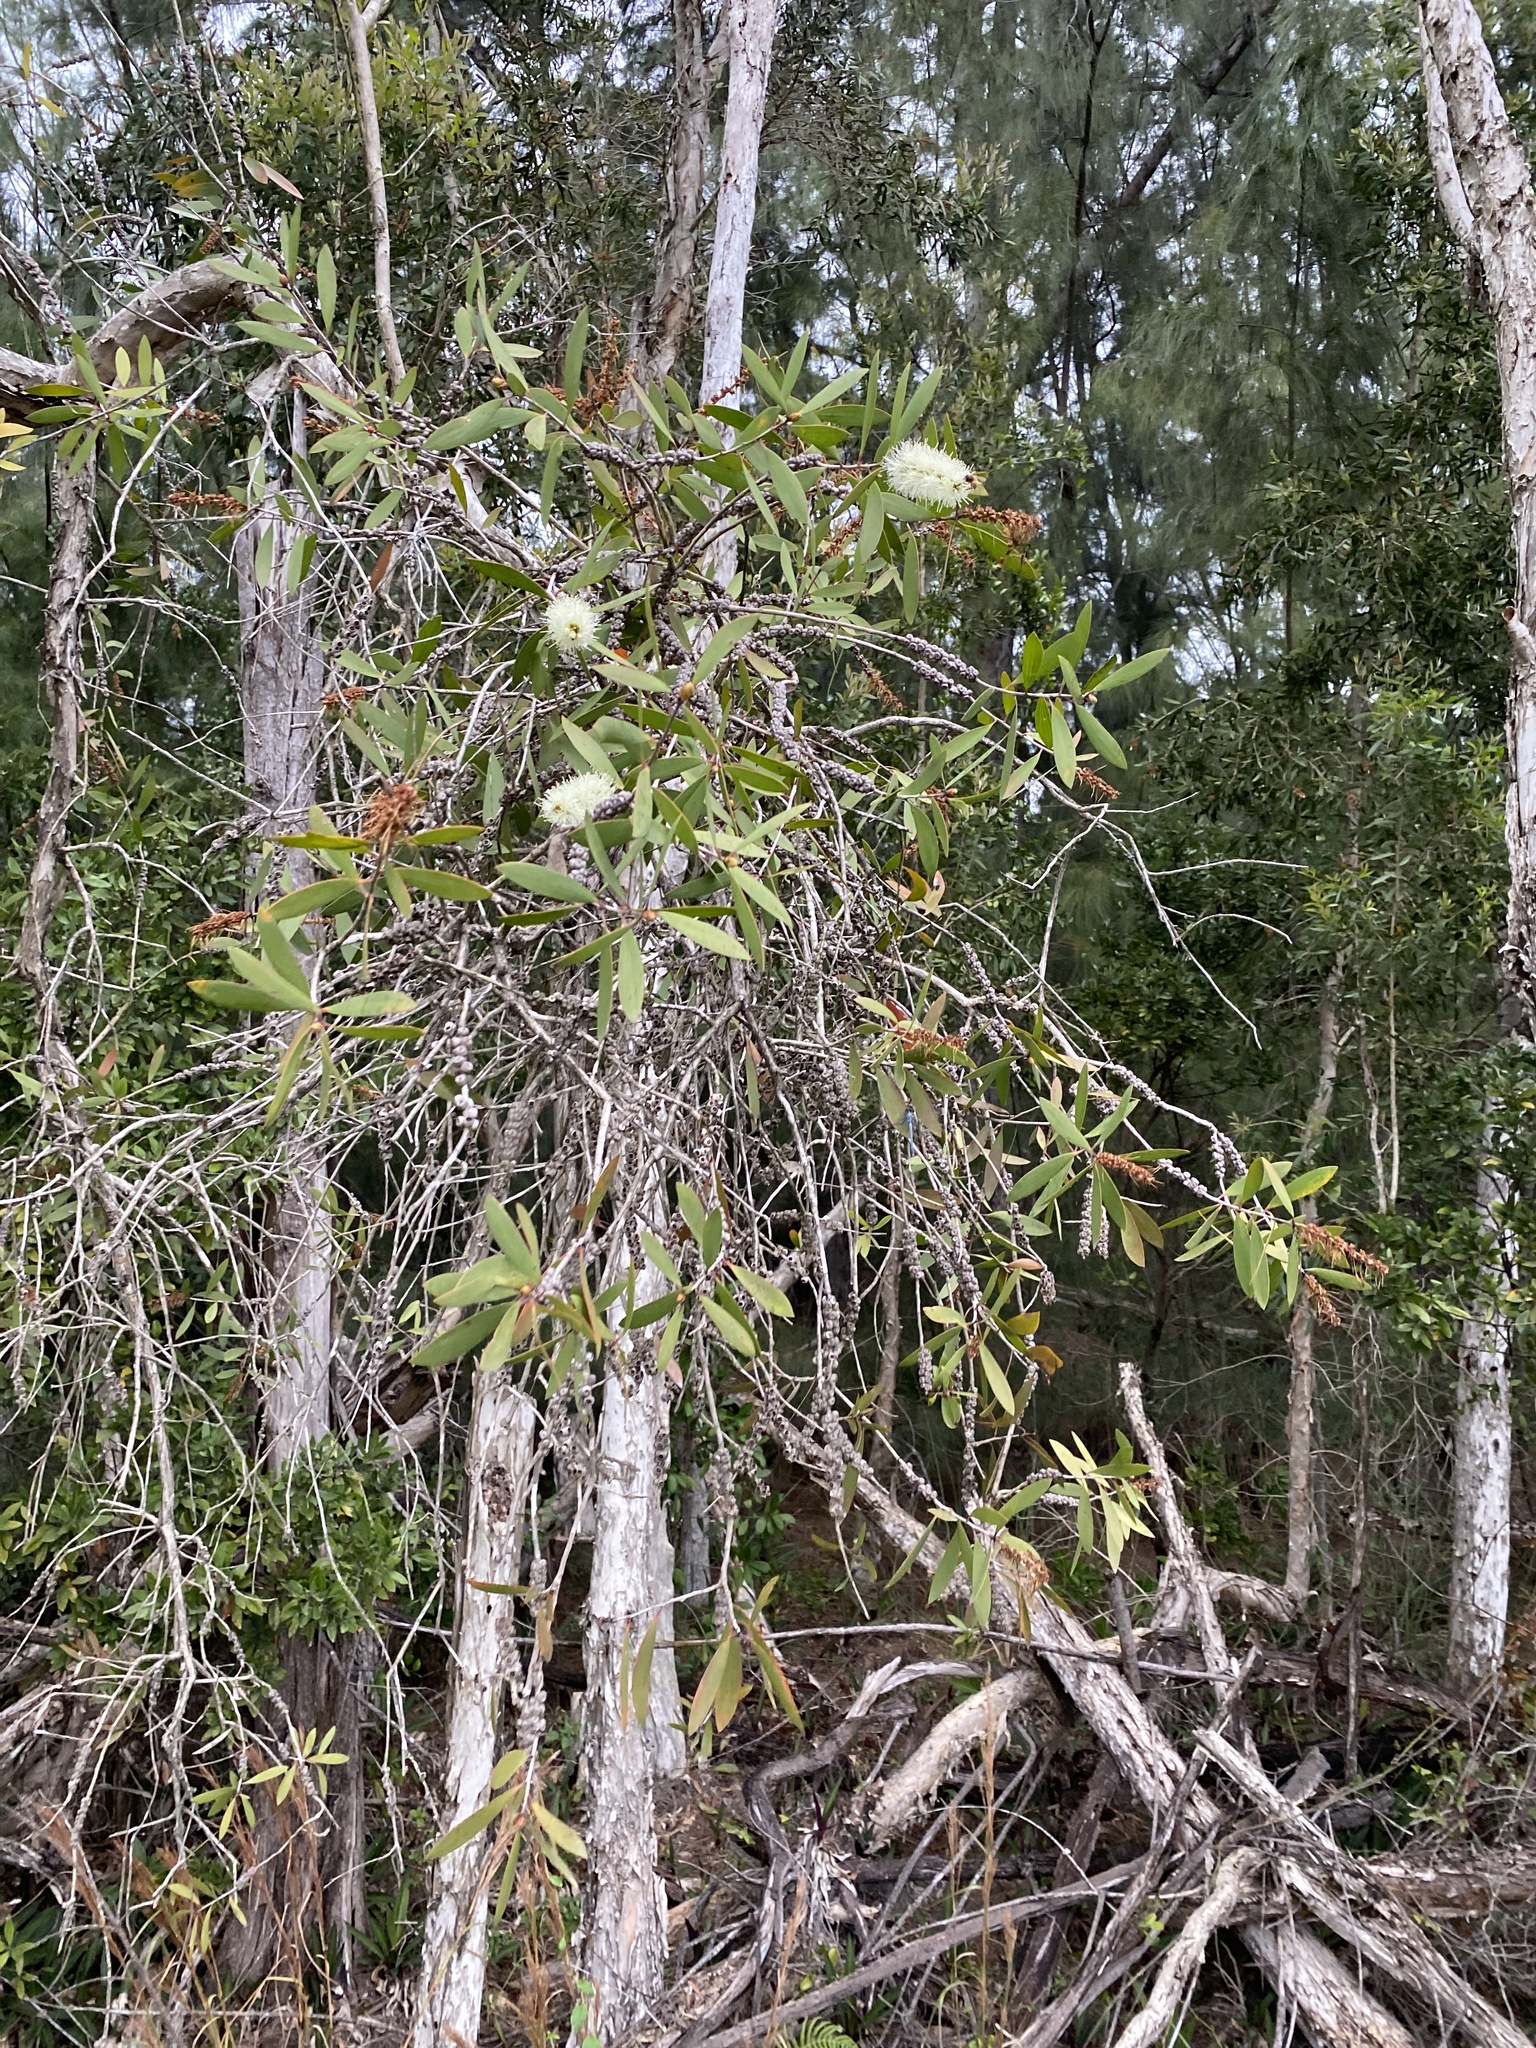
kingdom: Plantae
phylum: Tracheophyta
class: Magnoliopsida
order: Myrtales
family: Myrtaceae
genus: Melaleuca
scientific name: Melaleuca quinquenervia
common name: Punktree
